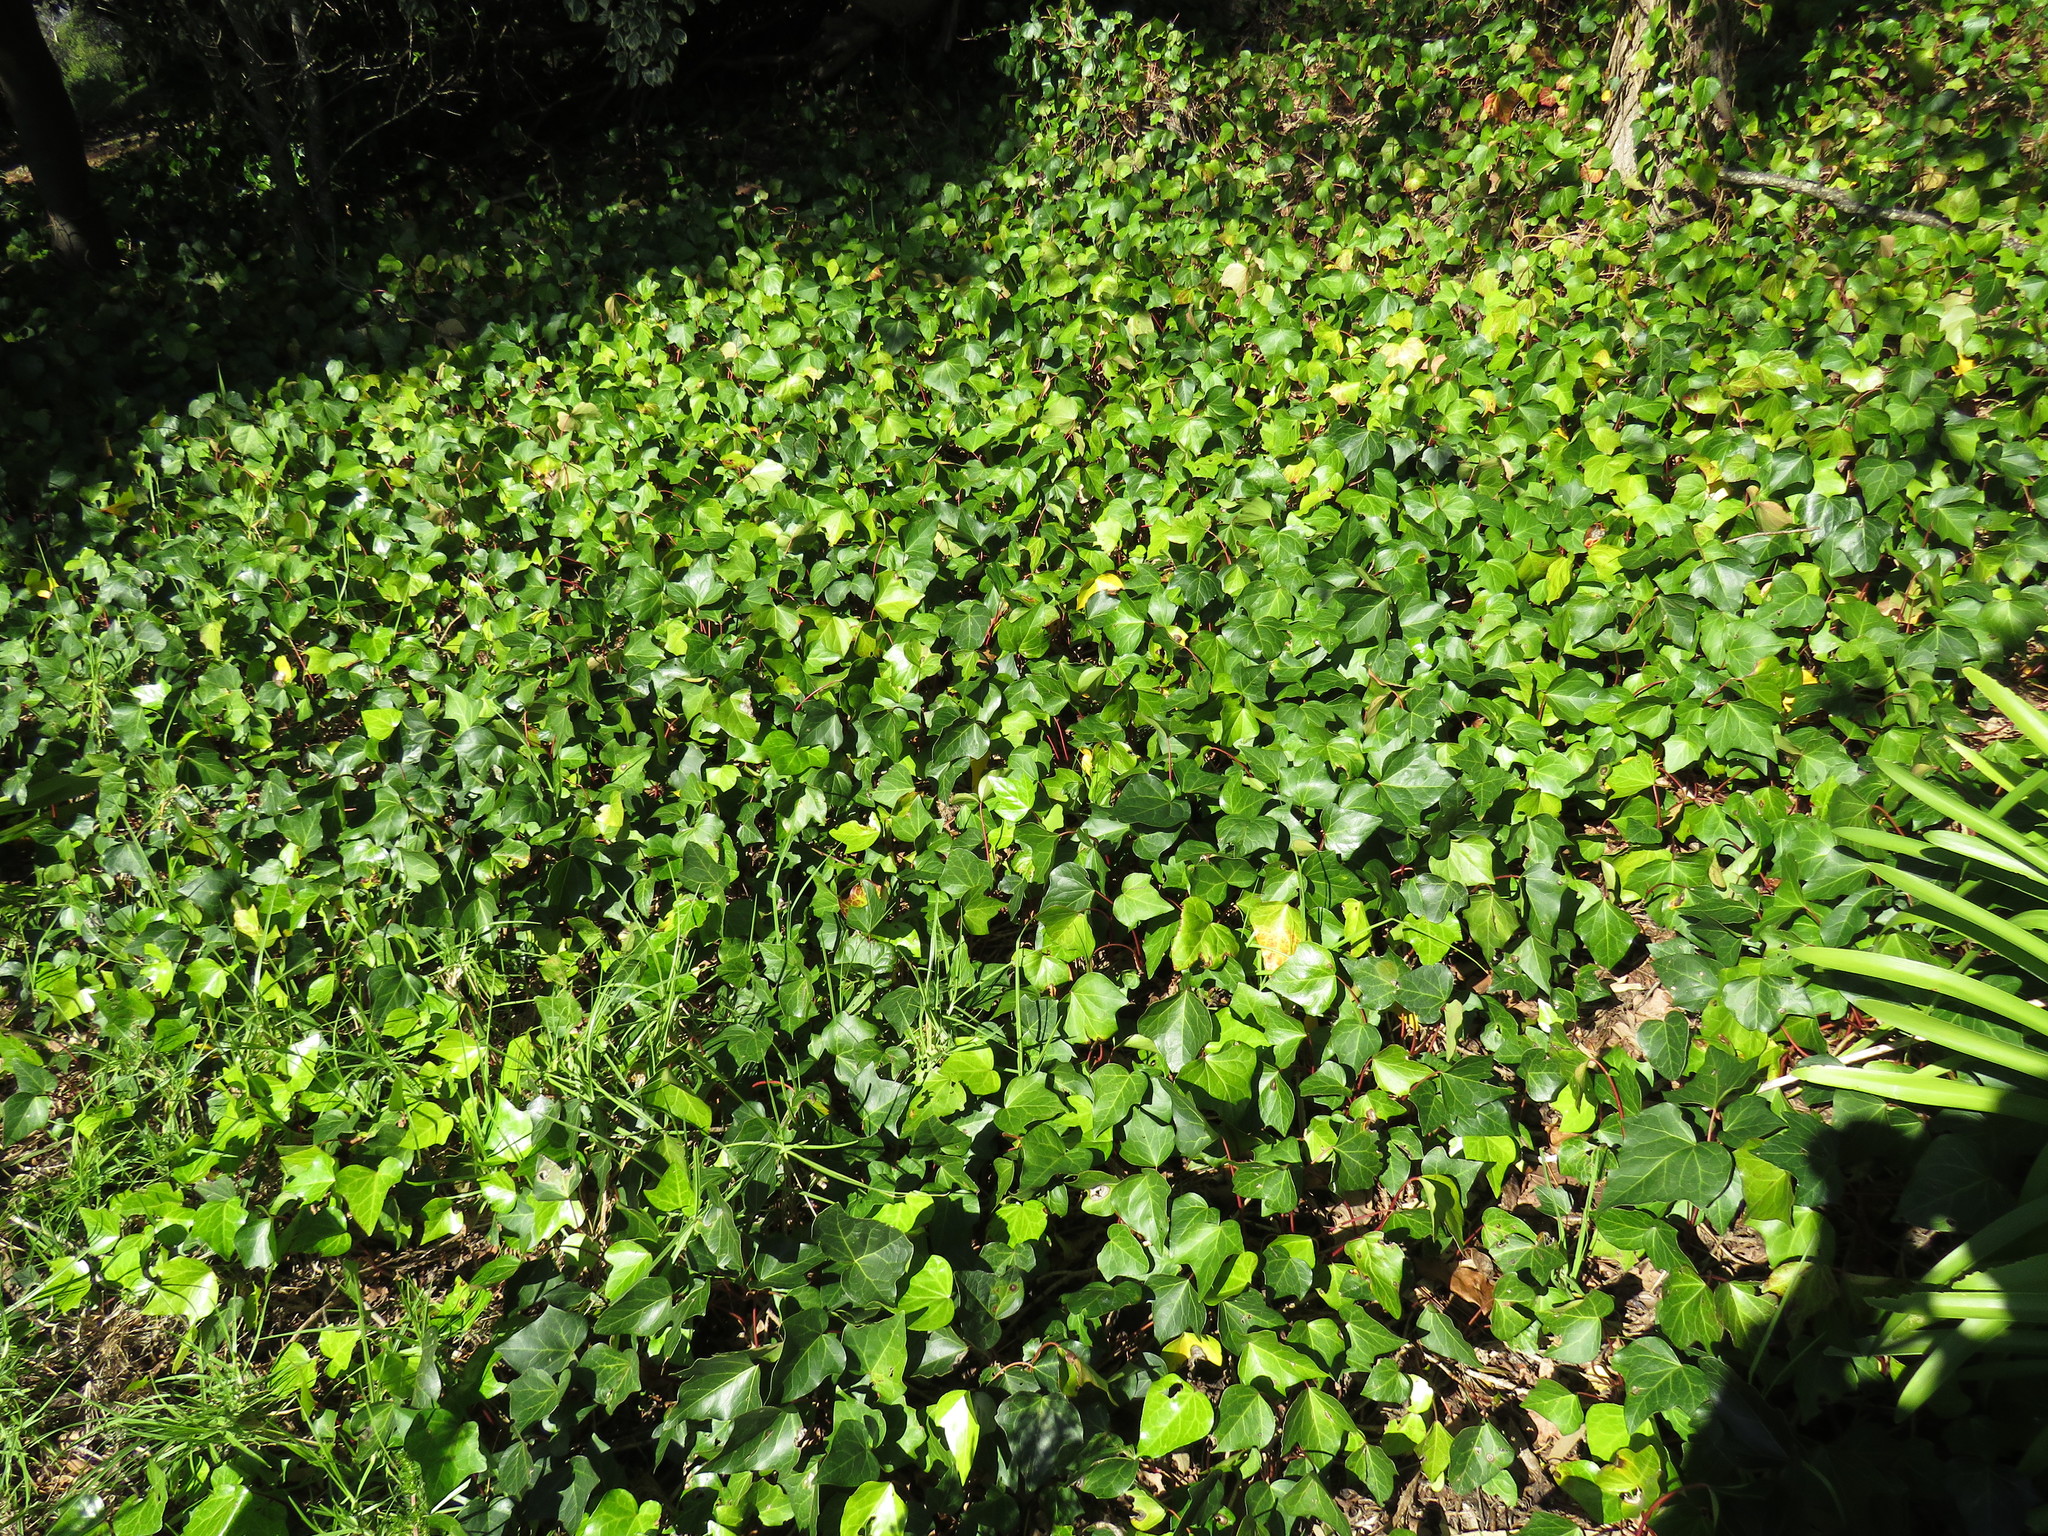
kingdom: Plantae
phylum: Tracheophyta
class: Magnoliopsida
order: Apiales
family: Araliaceae
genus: Hedera
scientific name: Hedera canariensis
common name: Madeira ivy
